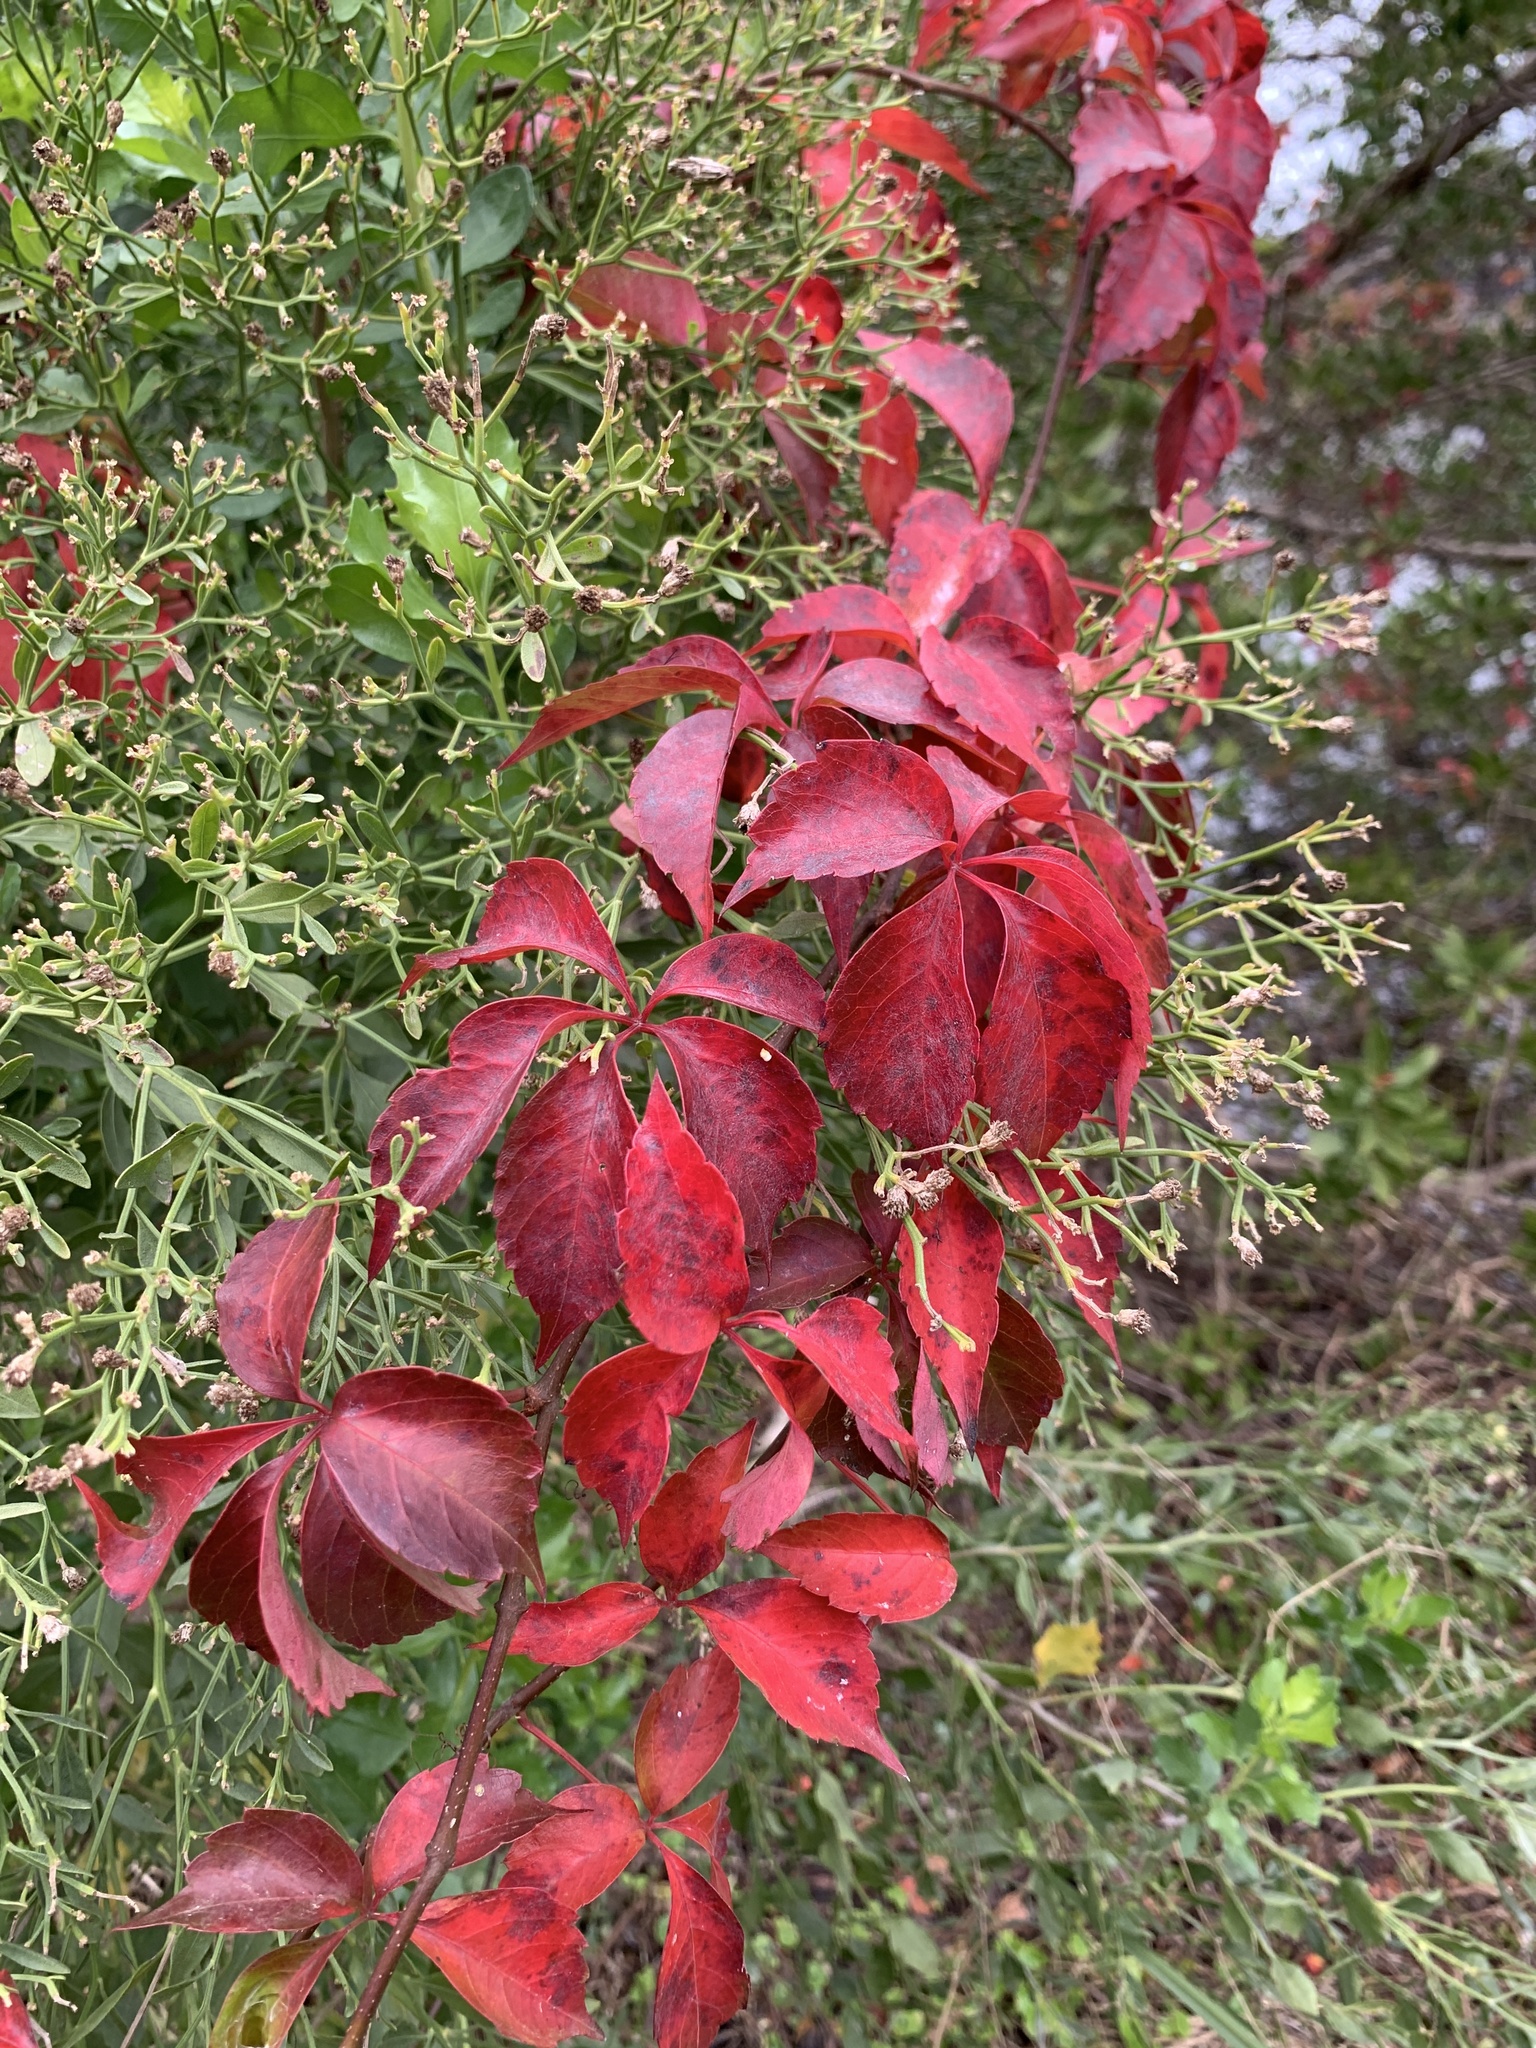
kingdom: Plantae
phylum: Tracheophyta
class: Magnoliopsida
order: Vitales
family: Vitaceae
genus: Parthenocissus
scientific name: Parthenocissus quinquefolia
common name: Virginia-creeper
